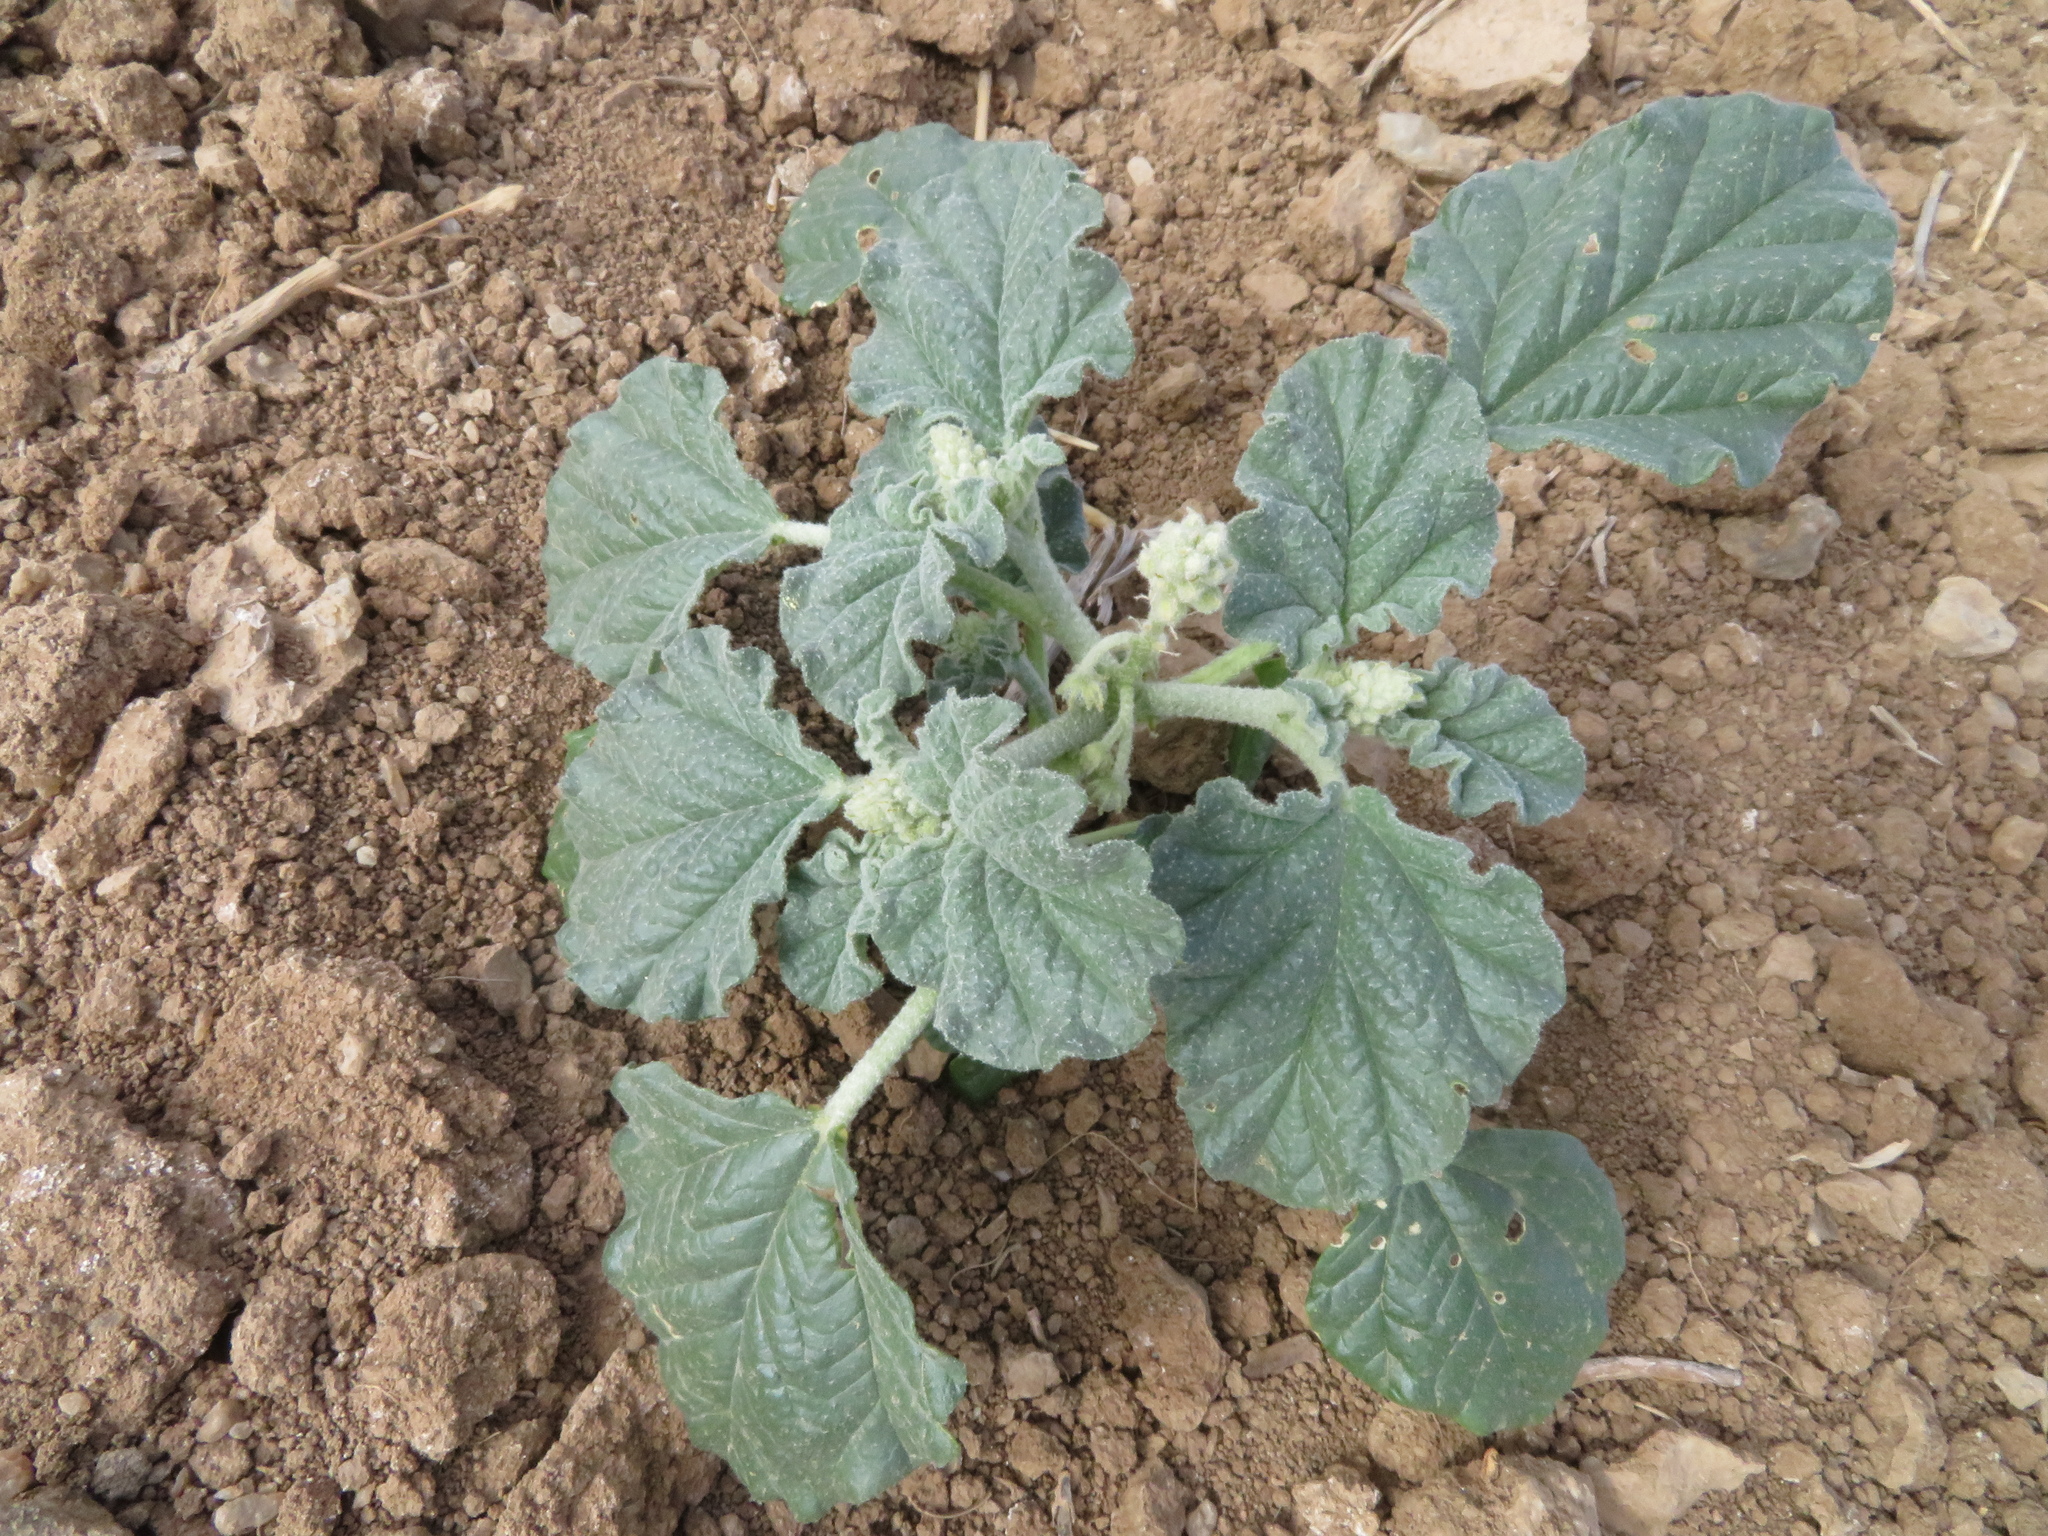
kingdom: Plantae
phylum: Tracheophyta
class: Magnoliopsida
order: Malpighiales
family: Euphorbiaceae
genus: Chrozophora
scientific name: Chrozophora tinctoria
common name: Dyer's litmus
